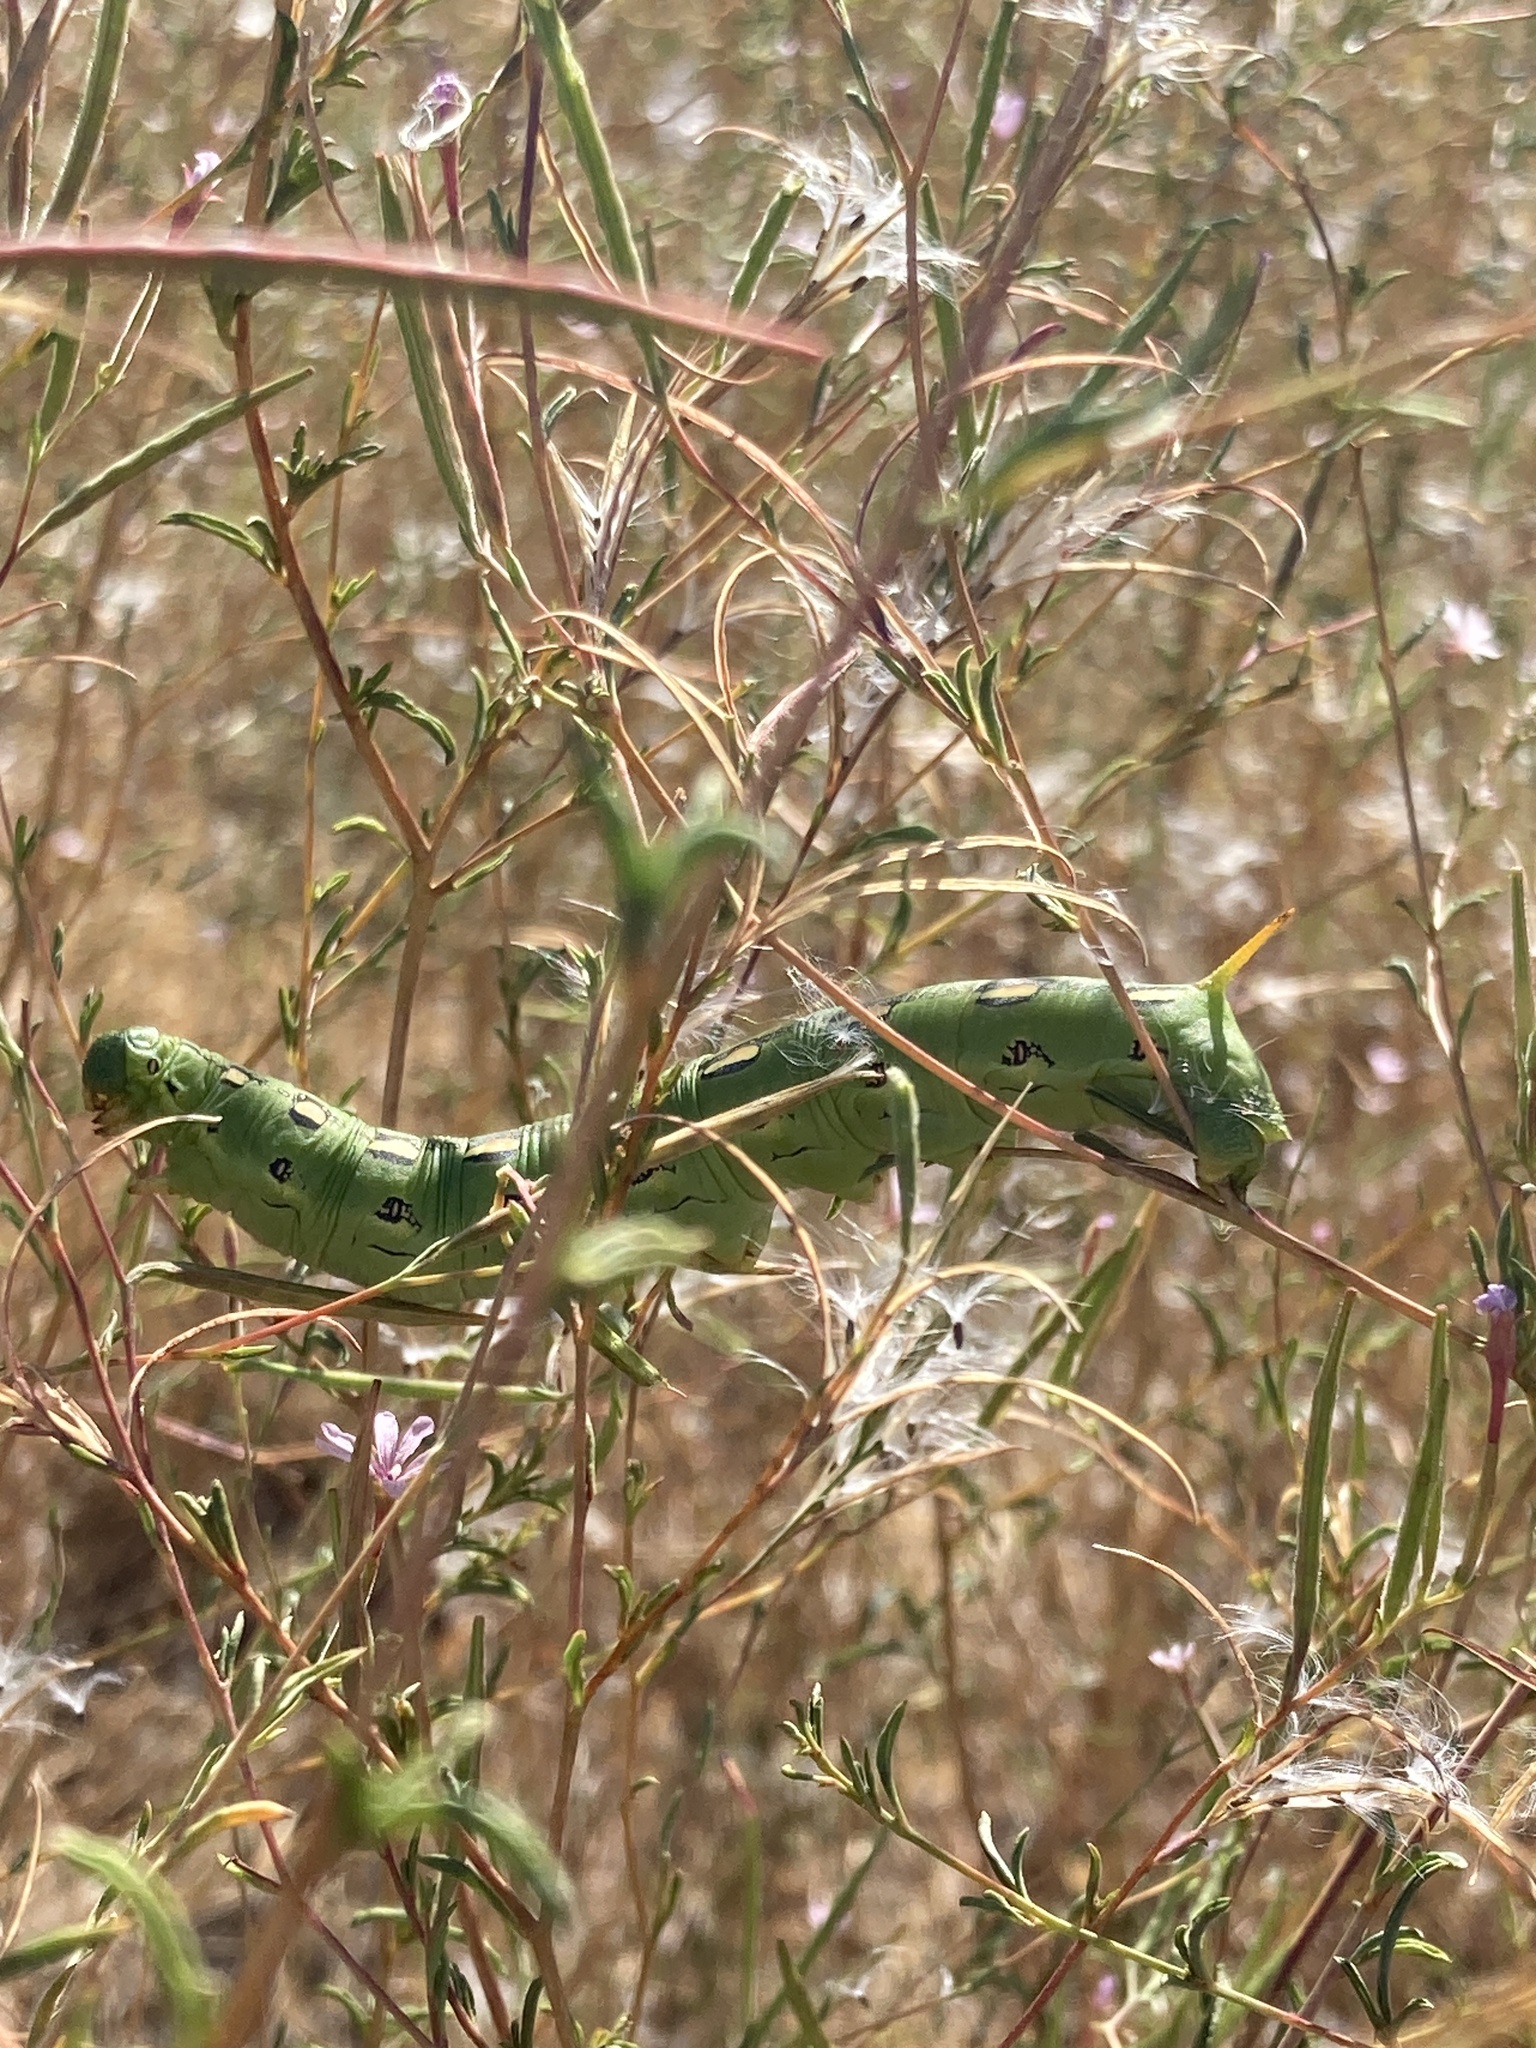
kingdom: Animalia
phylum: Arthropoda
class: Insecta
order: Lepidoptera
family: Sphingidae
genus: Hyles
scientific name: Hyles lineata
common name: White-lined sphinx
